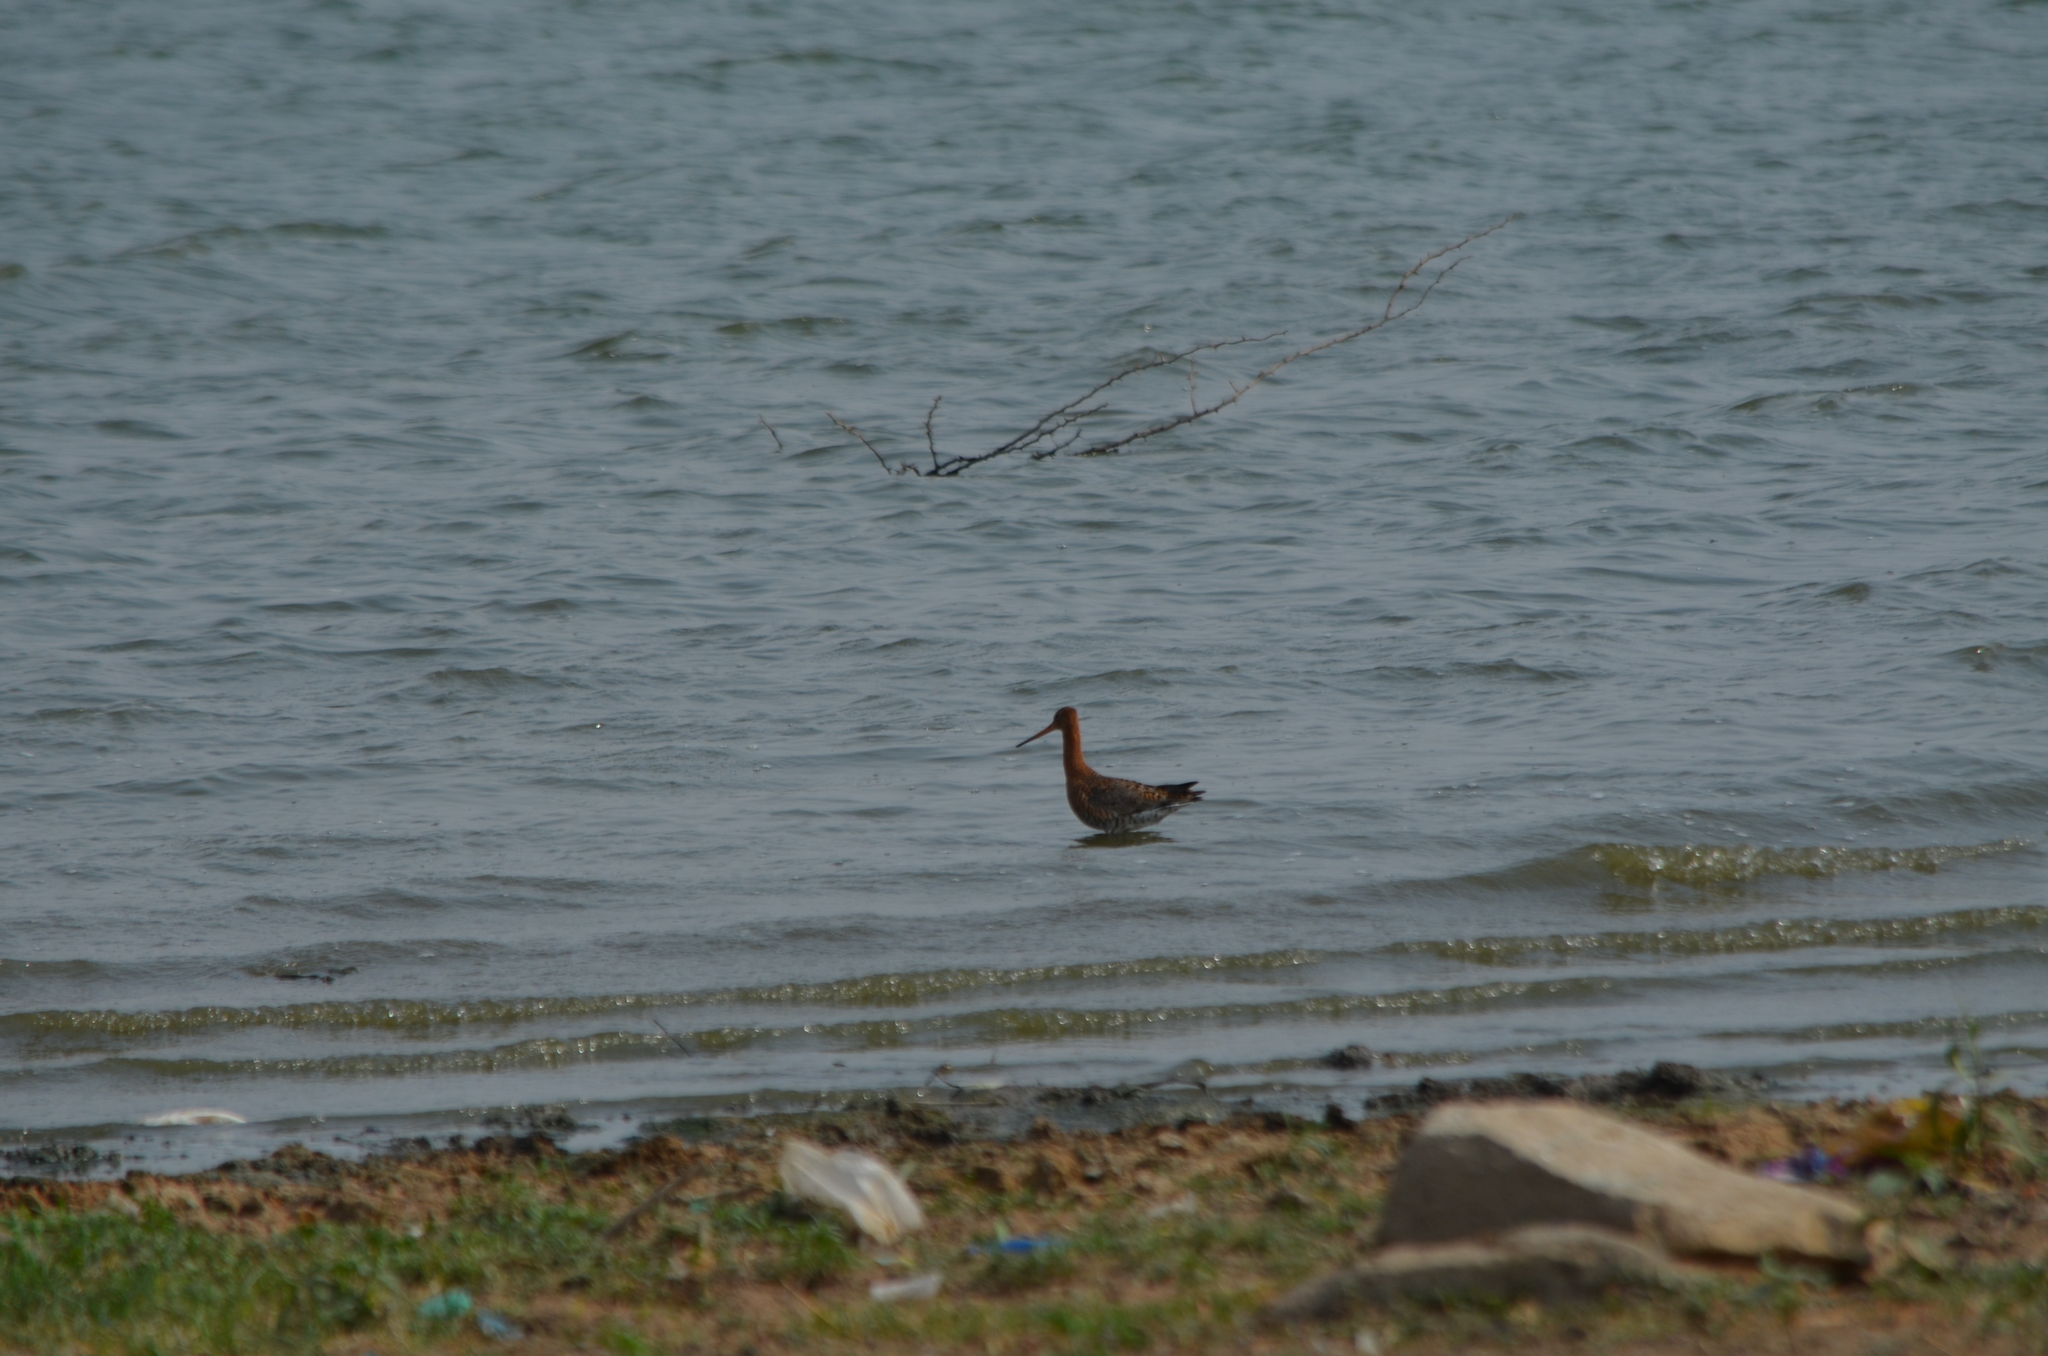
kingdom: Animalia
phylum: Chordata
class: Aves
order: Charadriiformes
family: Scolopacidae
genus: Limosa
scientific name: Limosa limosa
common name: Black-tailed godwit
